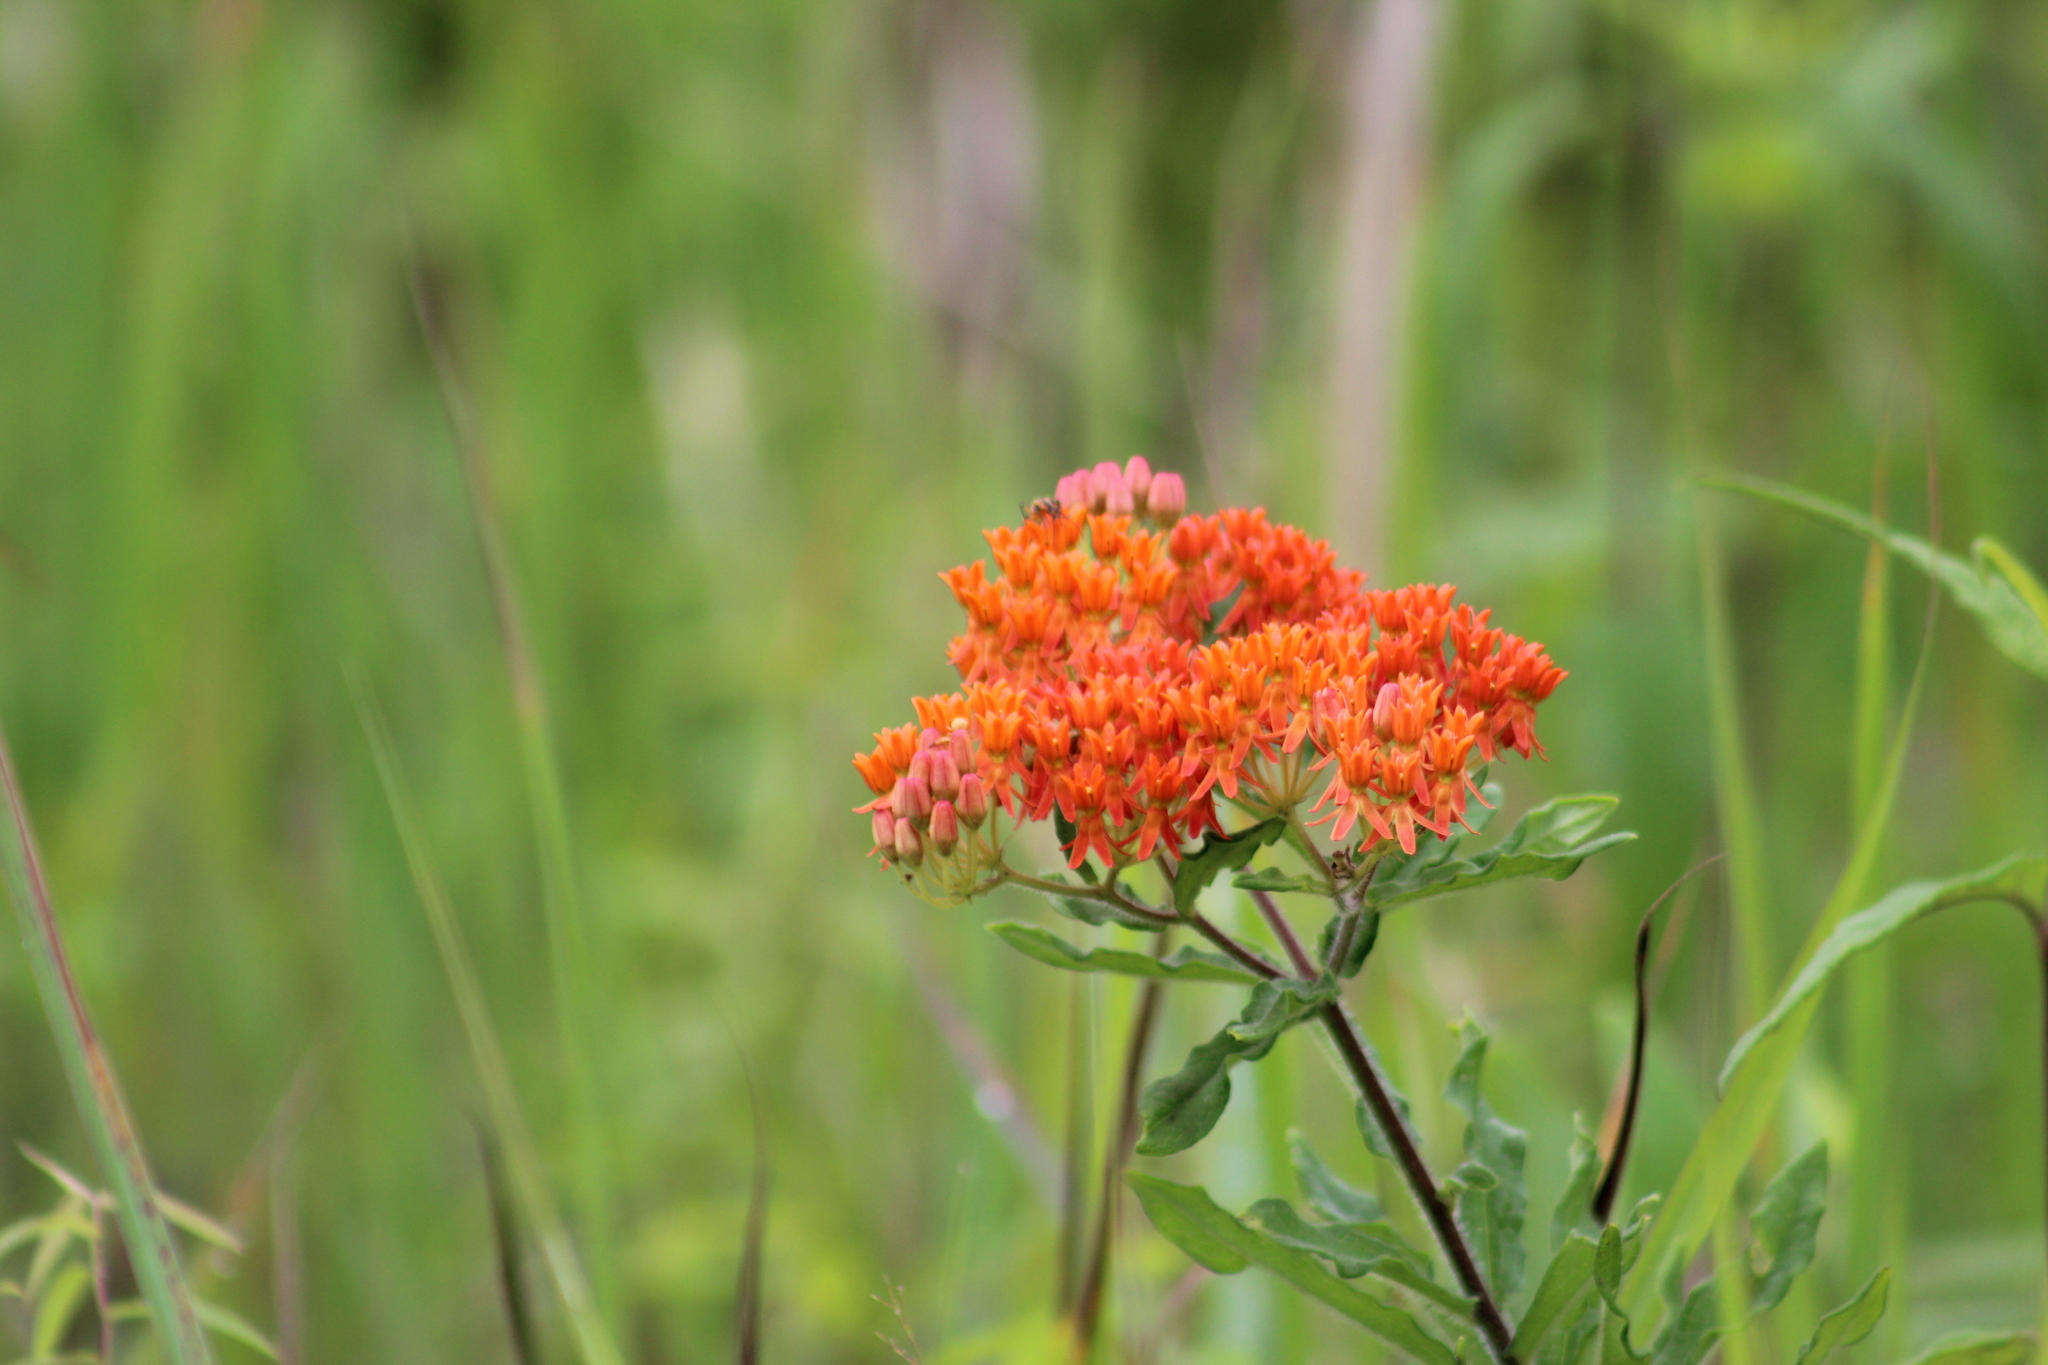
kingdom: Plantae
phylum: Tracheophyta
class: Magnoliopsida
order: Gentianales
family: Apocynaceae
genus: Asclepias
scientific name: Asclepias tuberosa
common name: Butterfly milkweed
